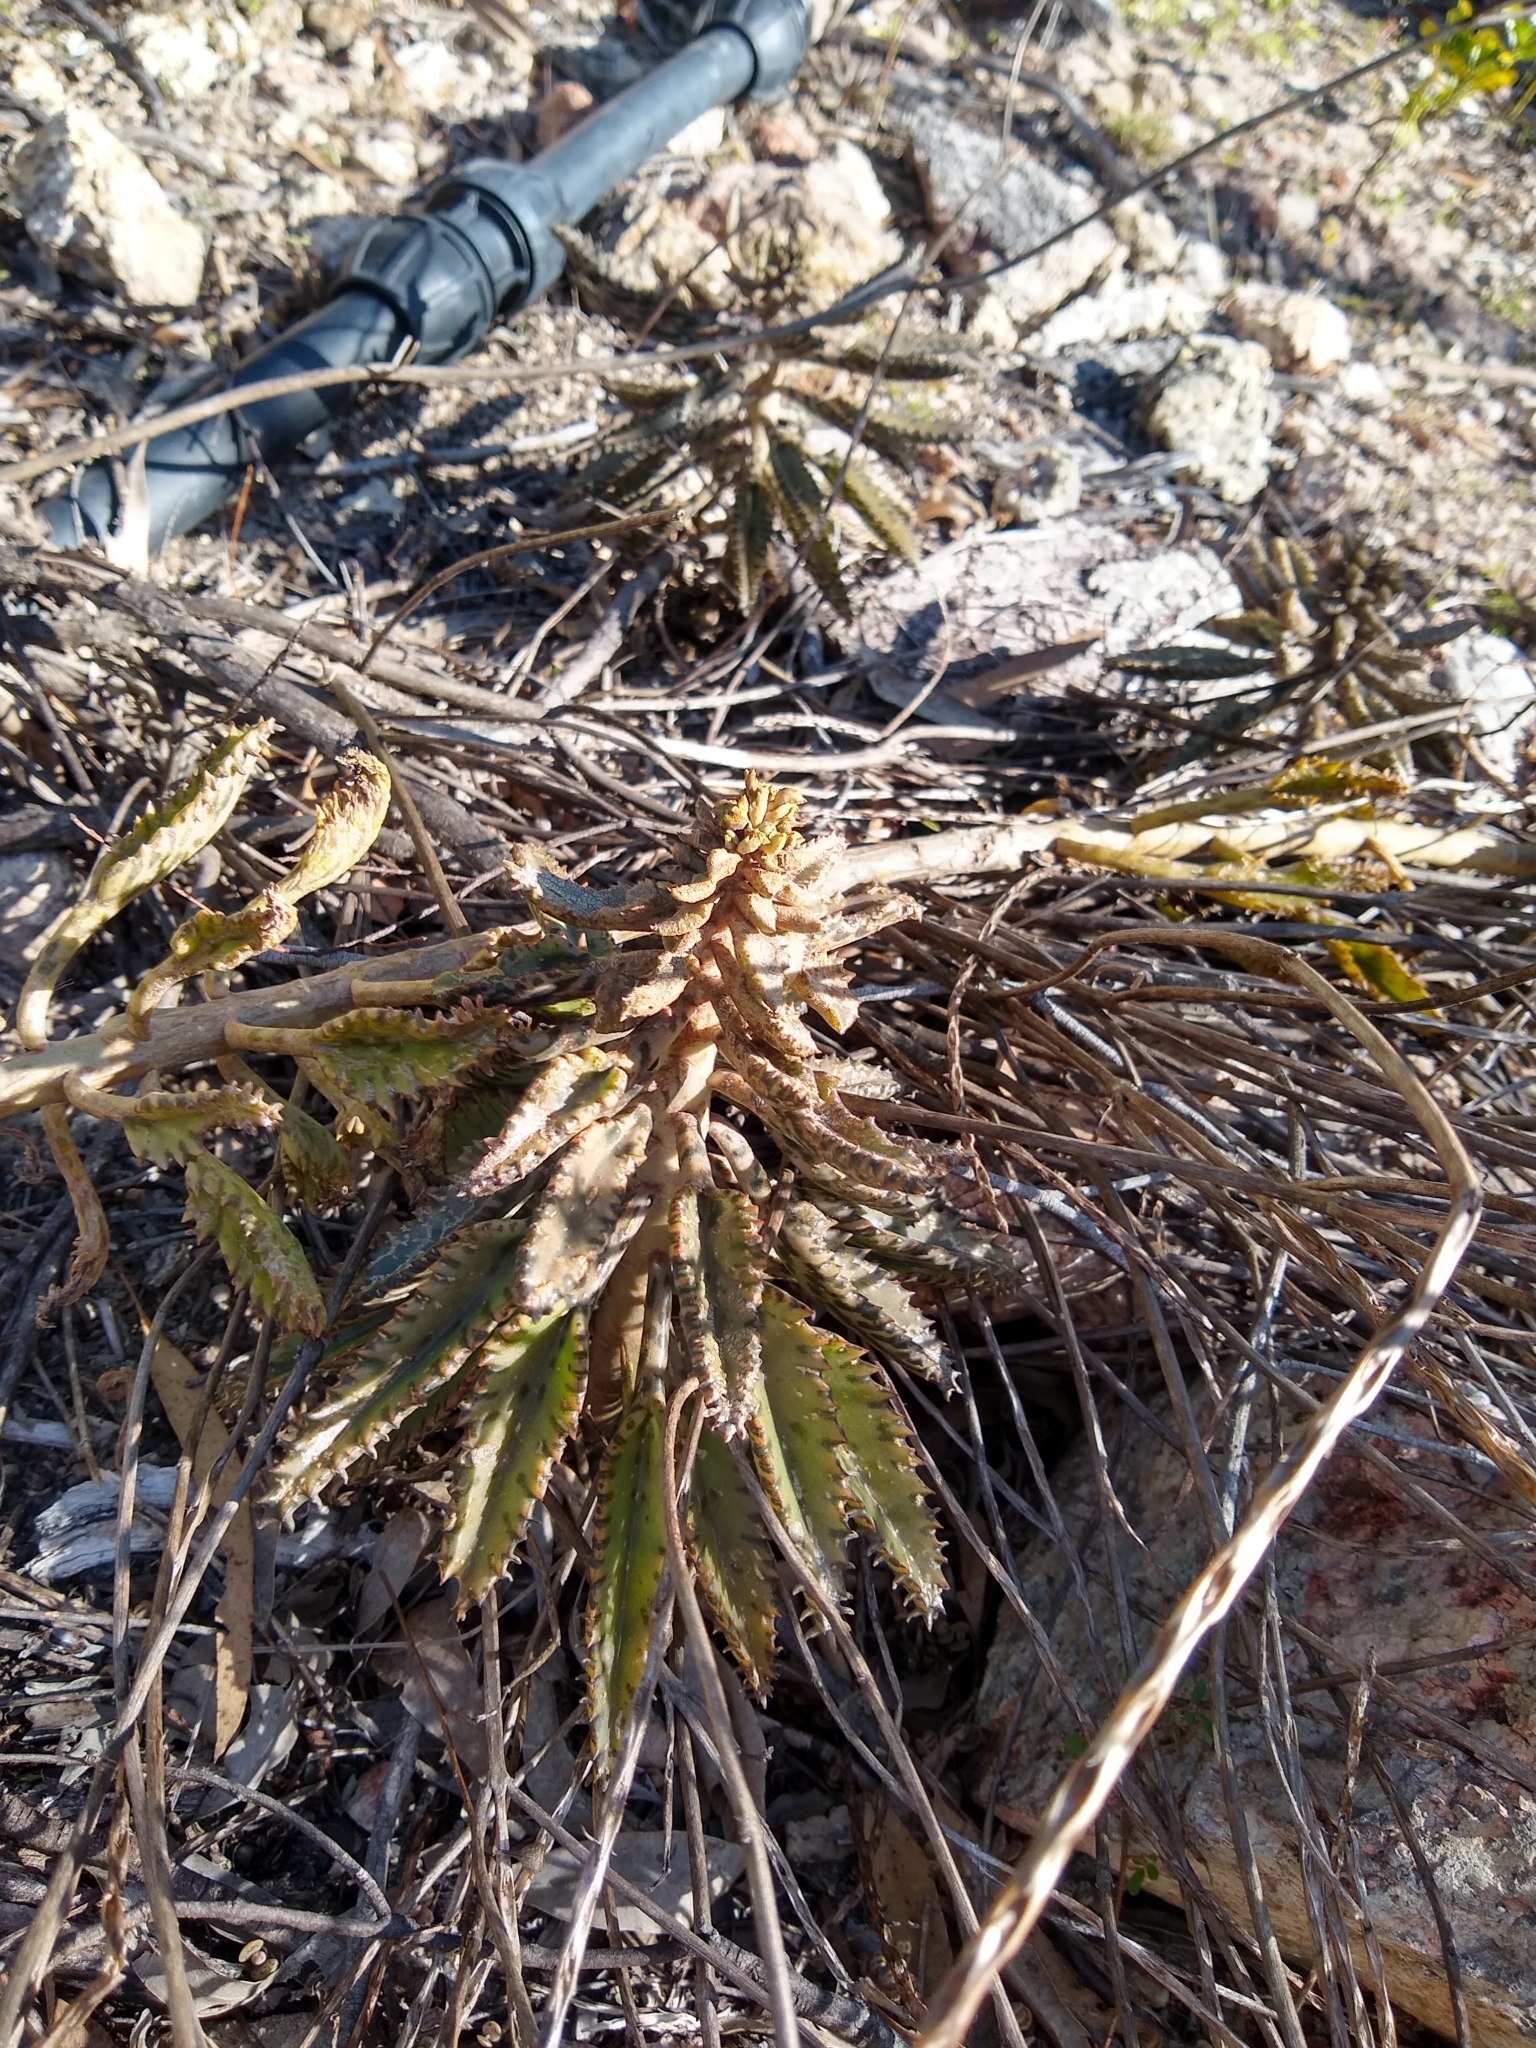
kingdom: Plantae
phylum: Tracheophyta
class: Magnoliopsida
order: Saxifragales
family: Crassulaceae
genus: Kalanchoe
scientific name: Kalanchoe houghtonii
